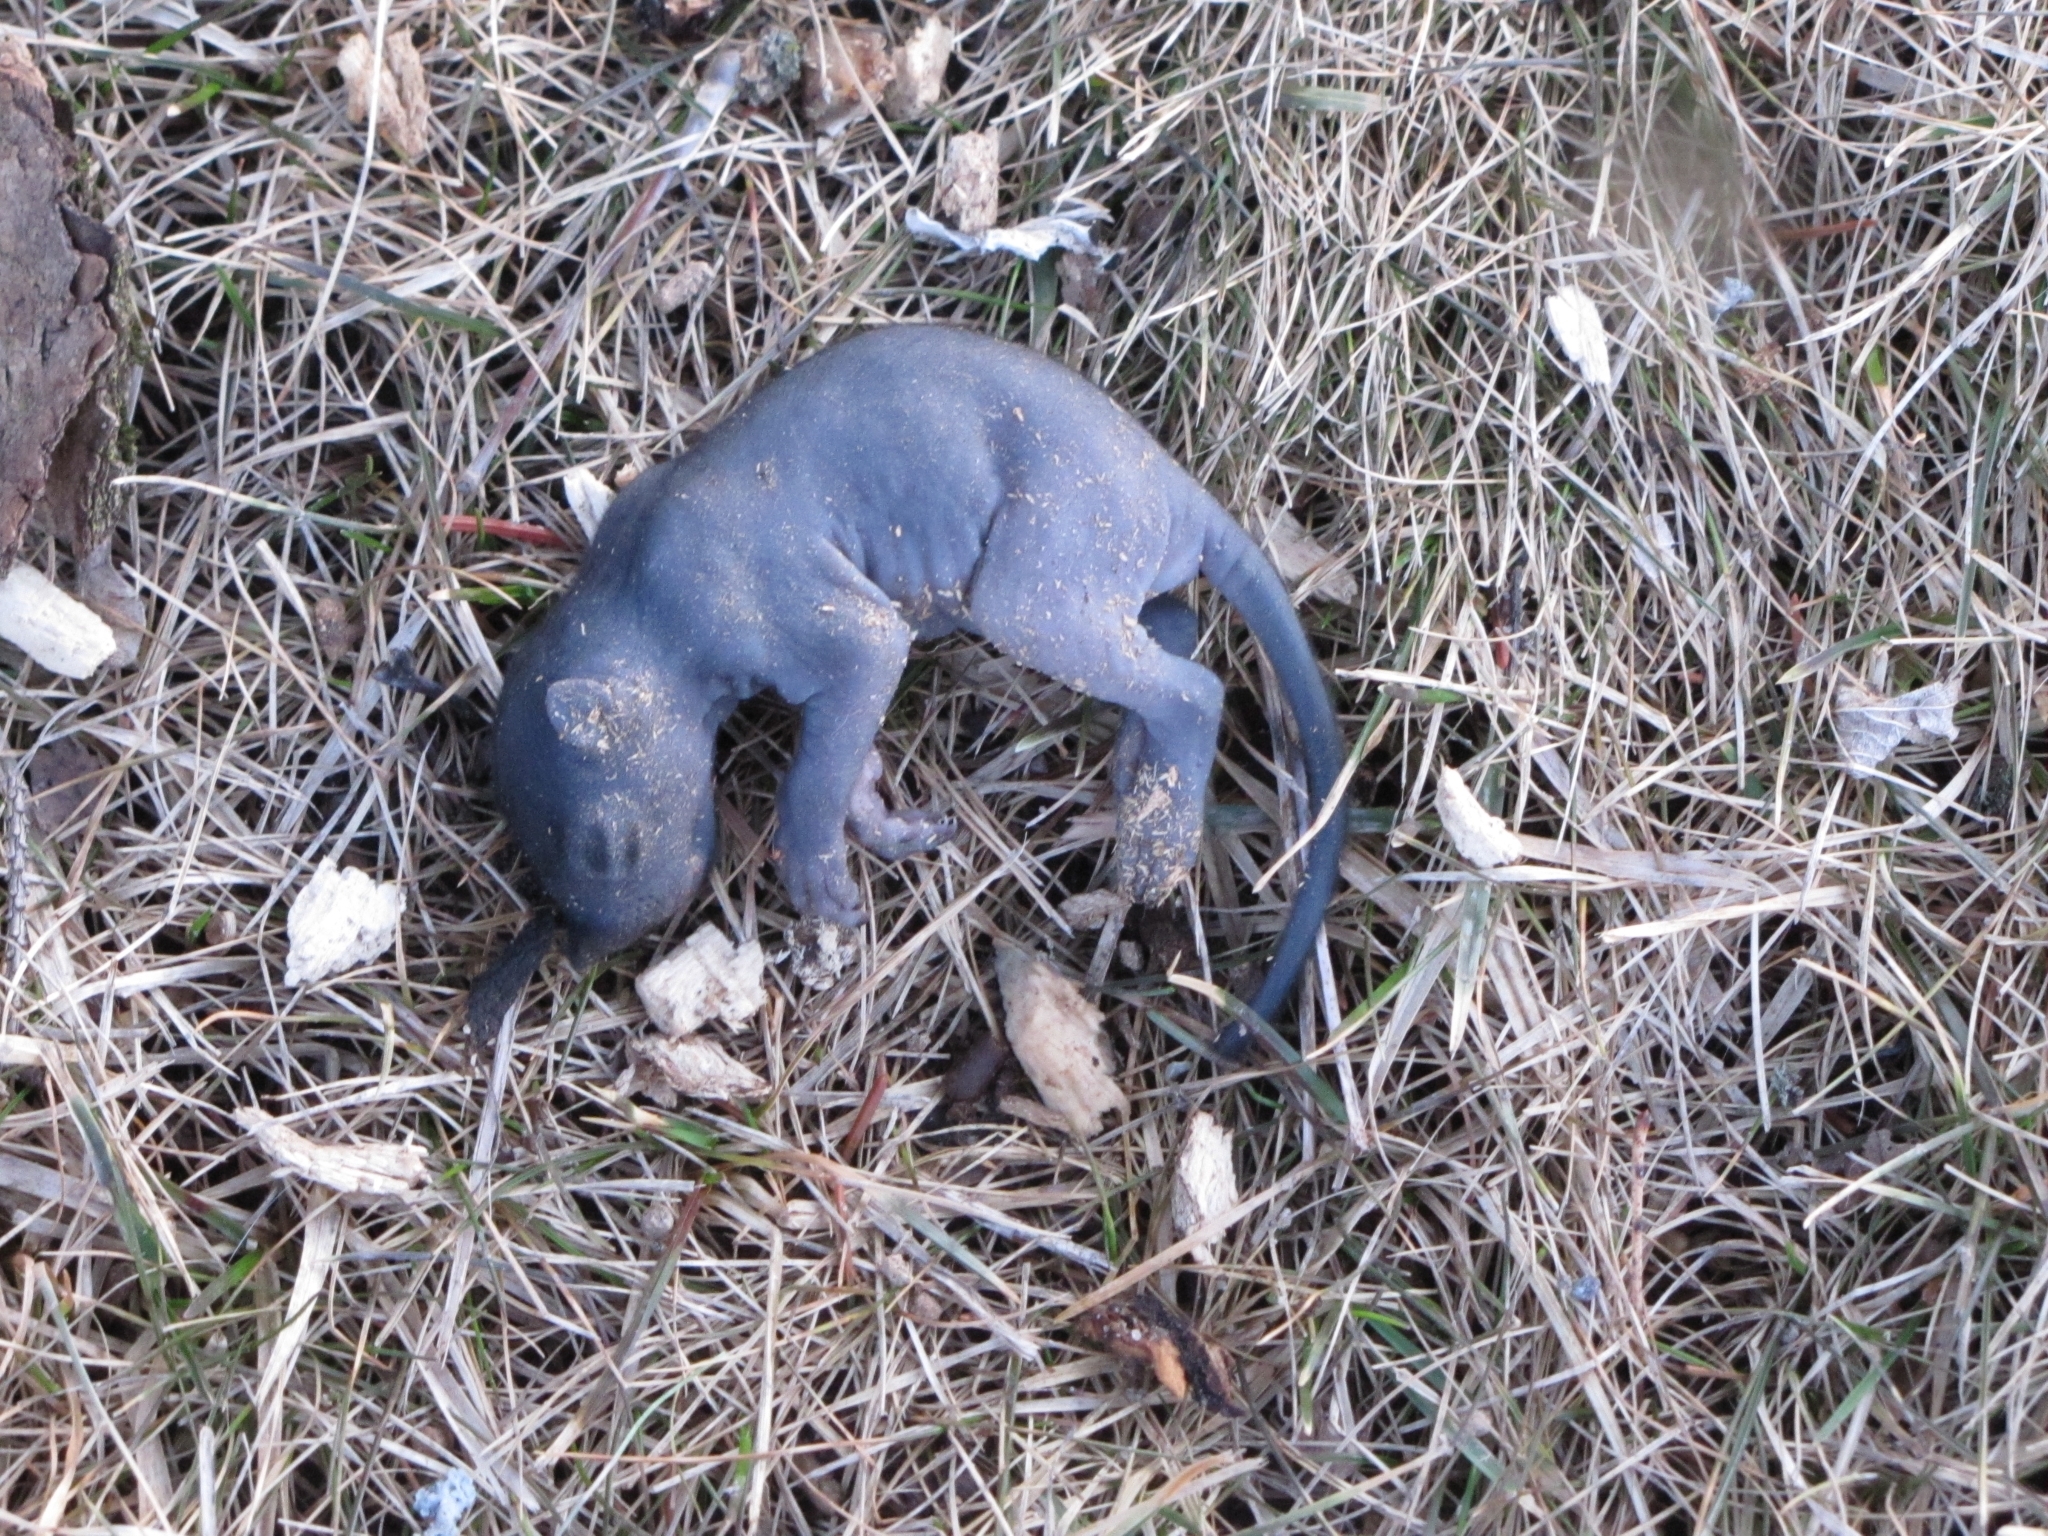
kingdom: Animalia
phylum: Chordata
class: Mammalia
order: Rodentia
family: Sciuridae
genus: Sciurus
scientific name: Sciurus carolinensis
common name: Eastern gray squirrel
